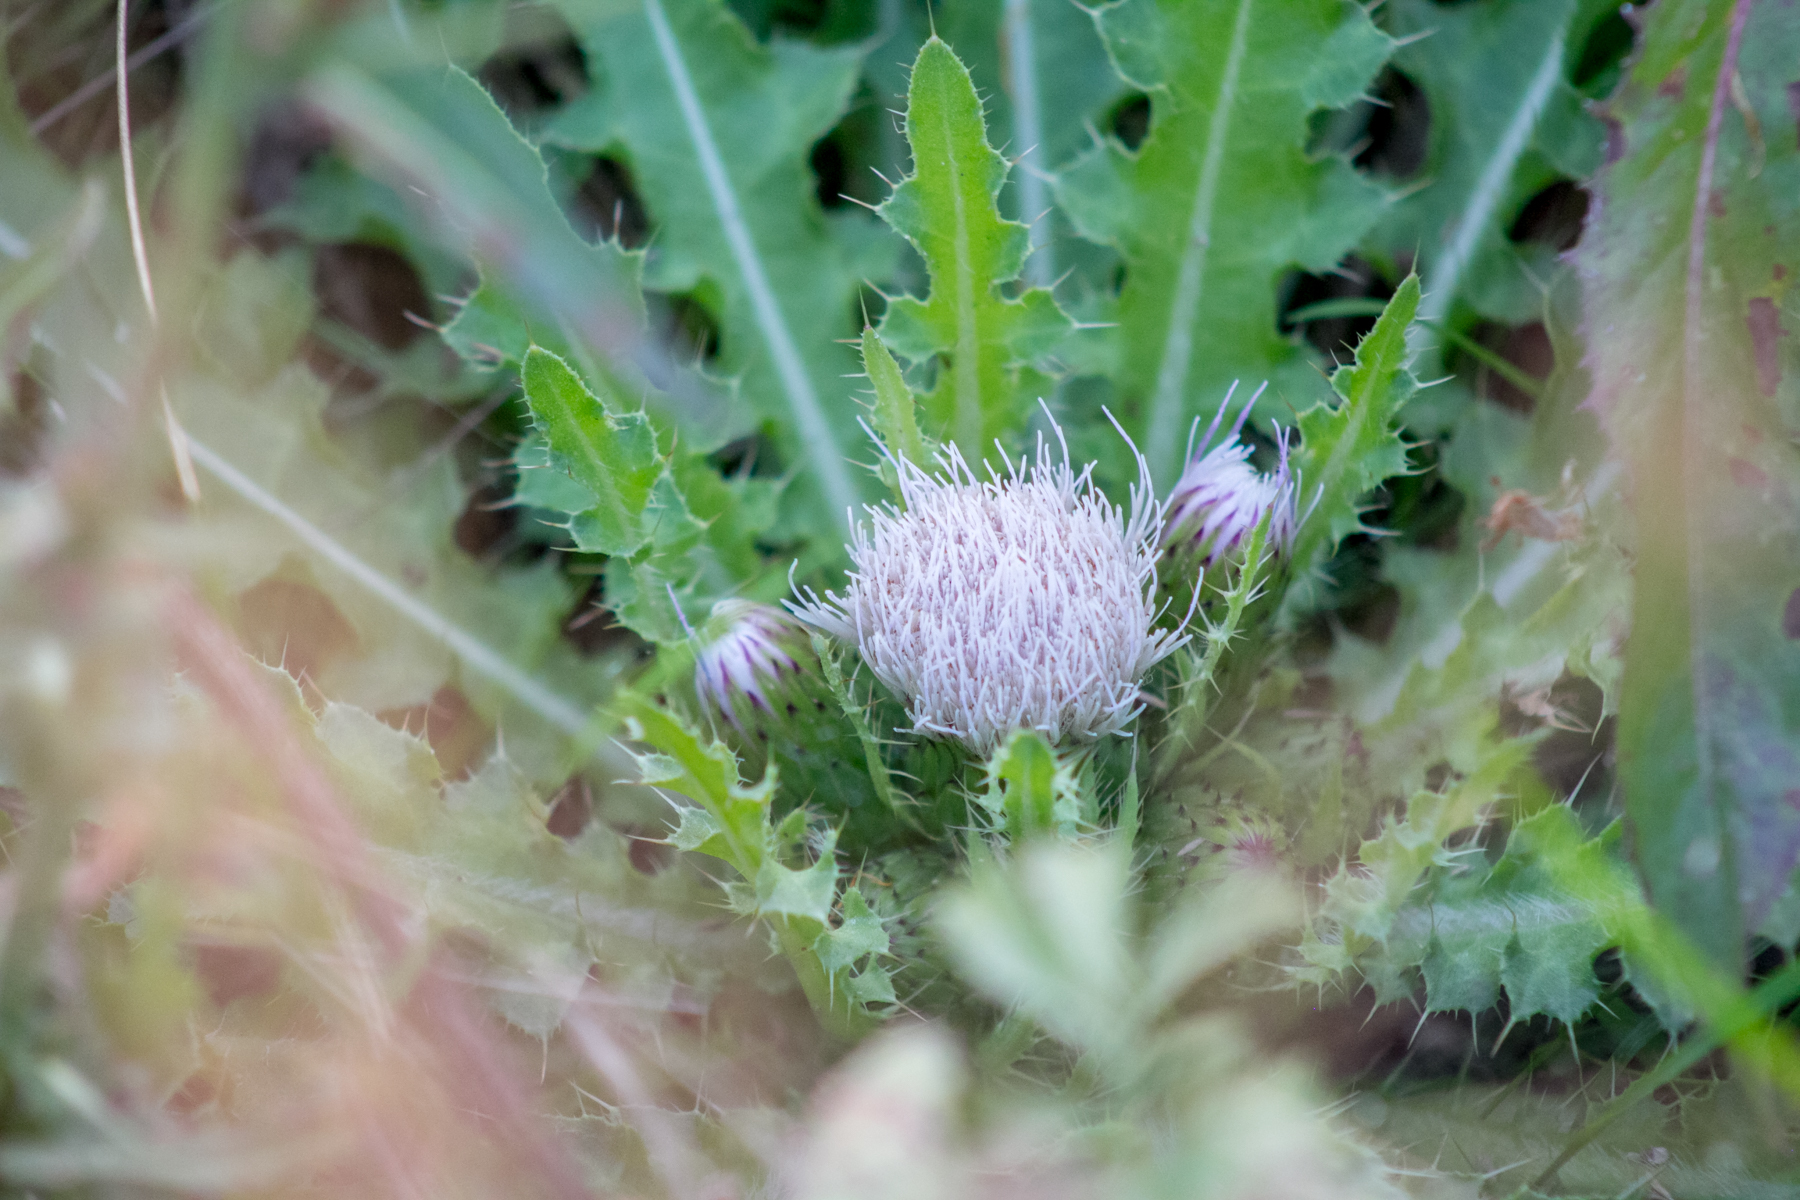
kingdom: Plantae
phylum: Tracheophyta
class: Magnoliopsida
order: Asterales
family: Asteraceae
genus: Cirsium
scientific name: Cirsium esculentum
